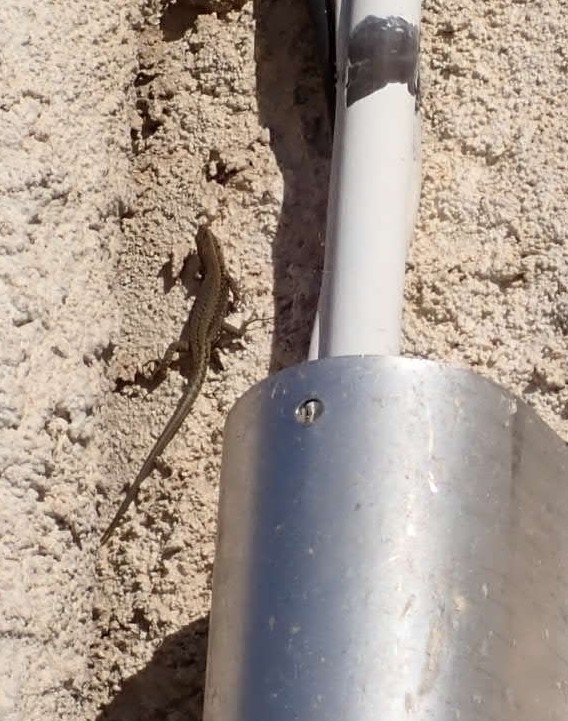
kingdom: Animalia
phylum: Chordata
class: Squamata
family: Lacertidae
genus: Podarcis
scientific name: Podarcis muralis
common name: Common wall lizard
